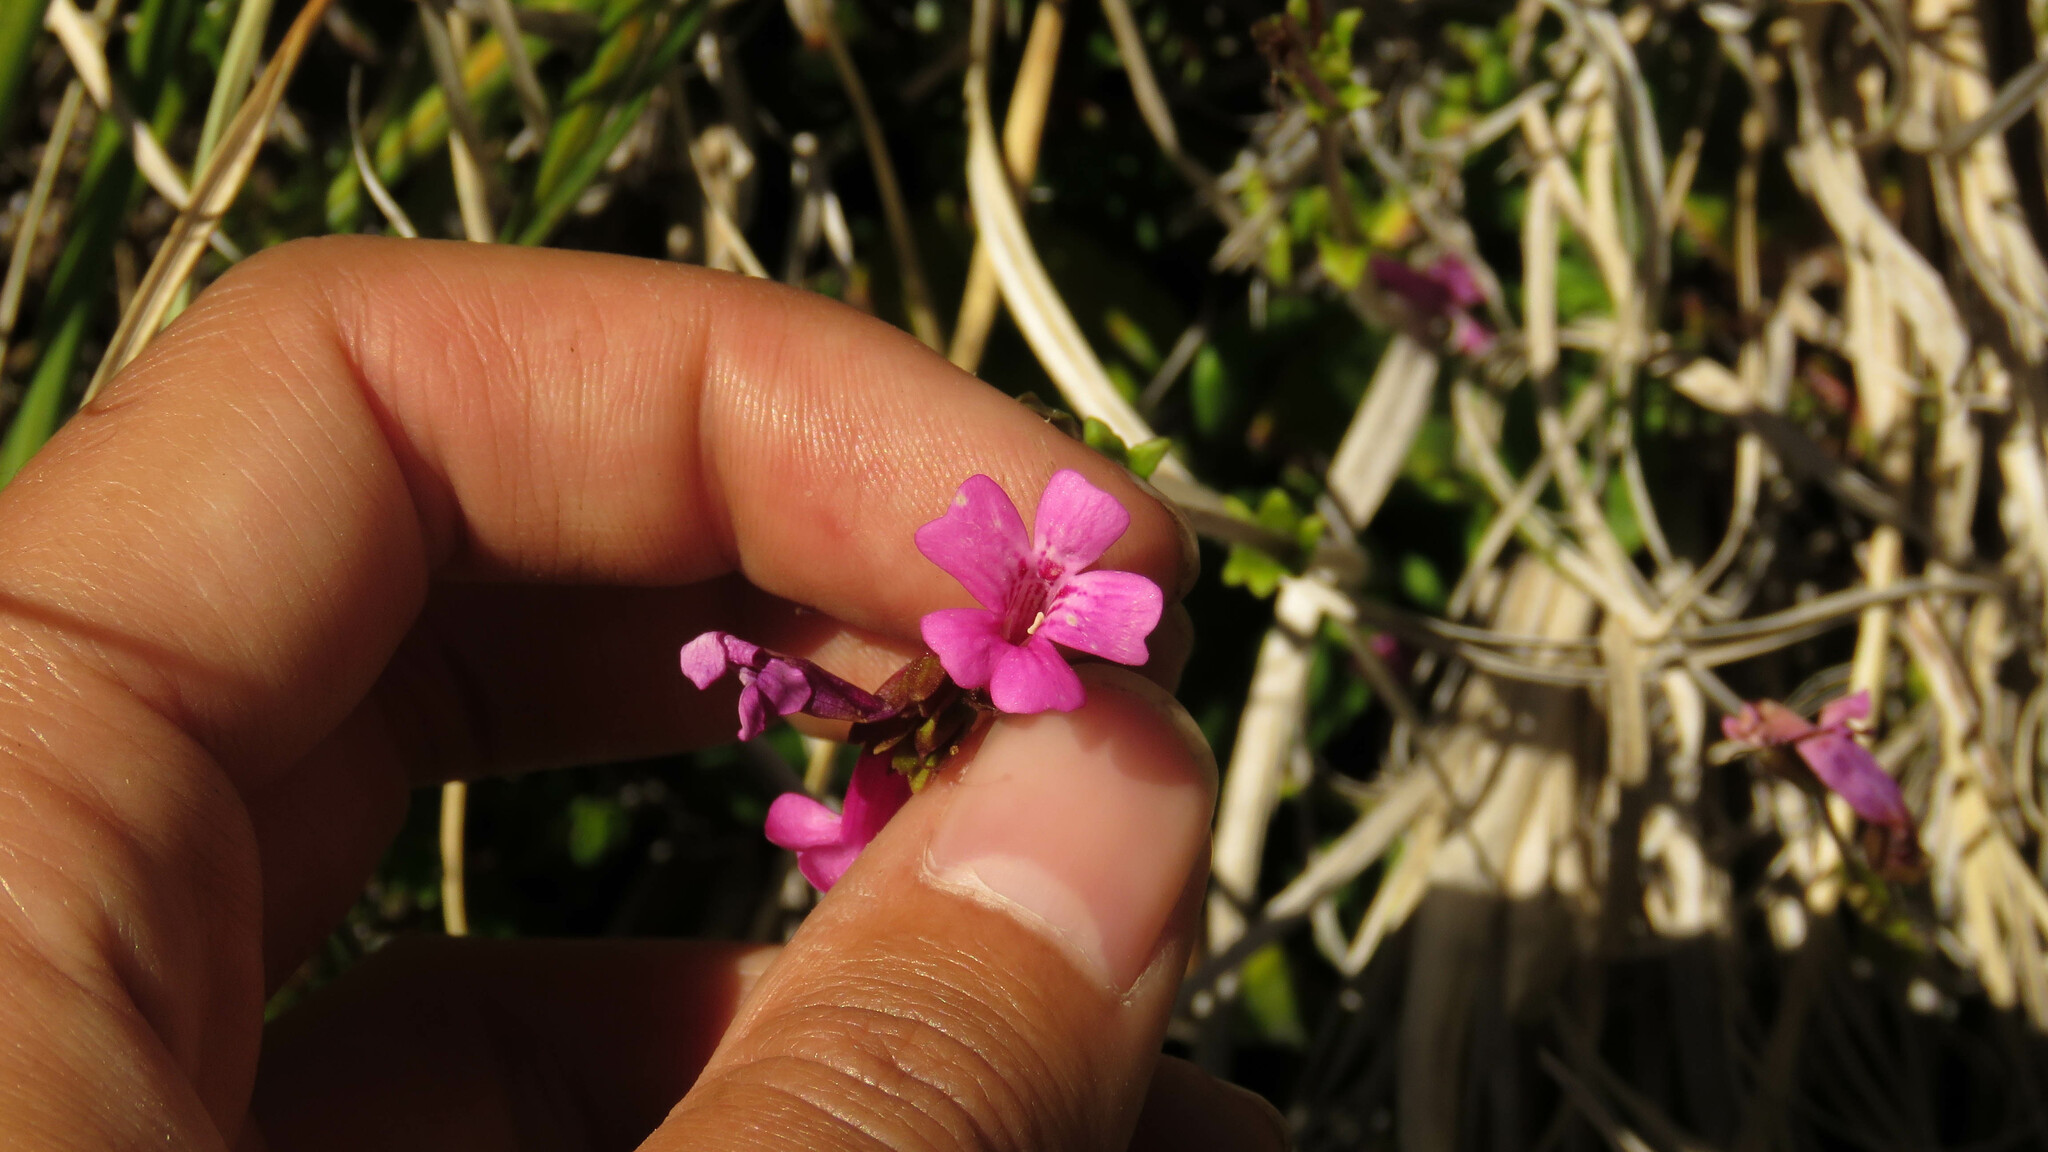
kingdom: Plantae
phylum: Tracheophyta
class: Magnoliopsida
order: Lamiales
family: Plantaginaceae
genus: Ourisia
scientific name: Ourisia alpina
